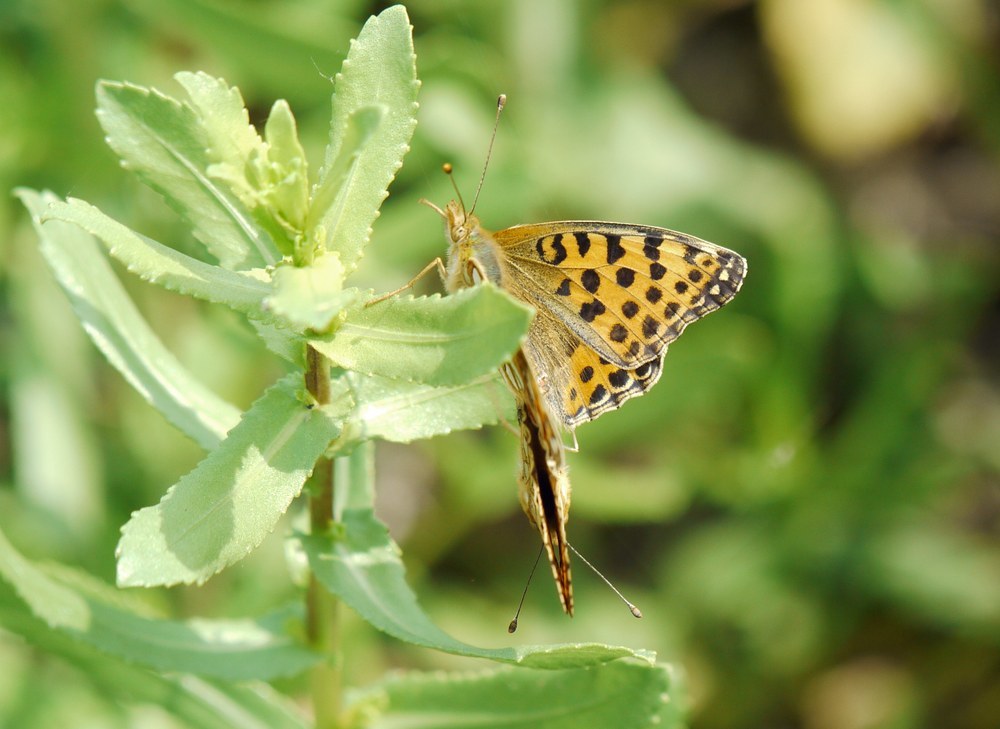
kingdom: Animalia
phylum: Arthropoda
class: Insecta
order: Lepidoptera
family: Nymphalidae
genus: Issoria
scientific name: Issoria lathonia
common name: Queen of spain fritillary
